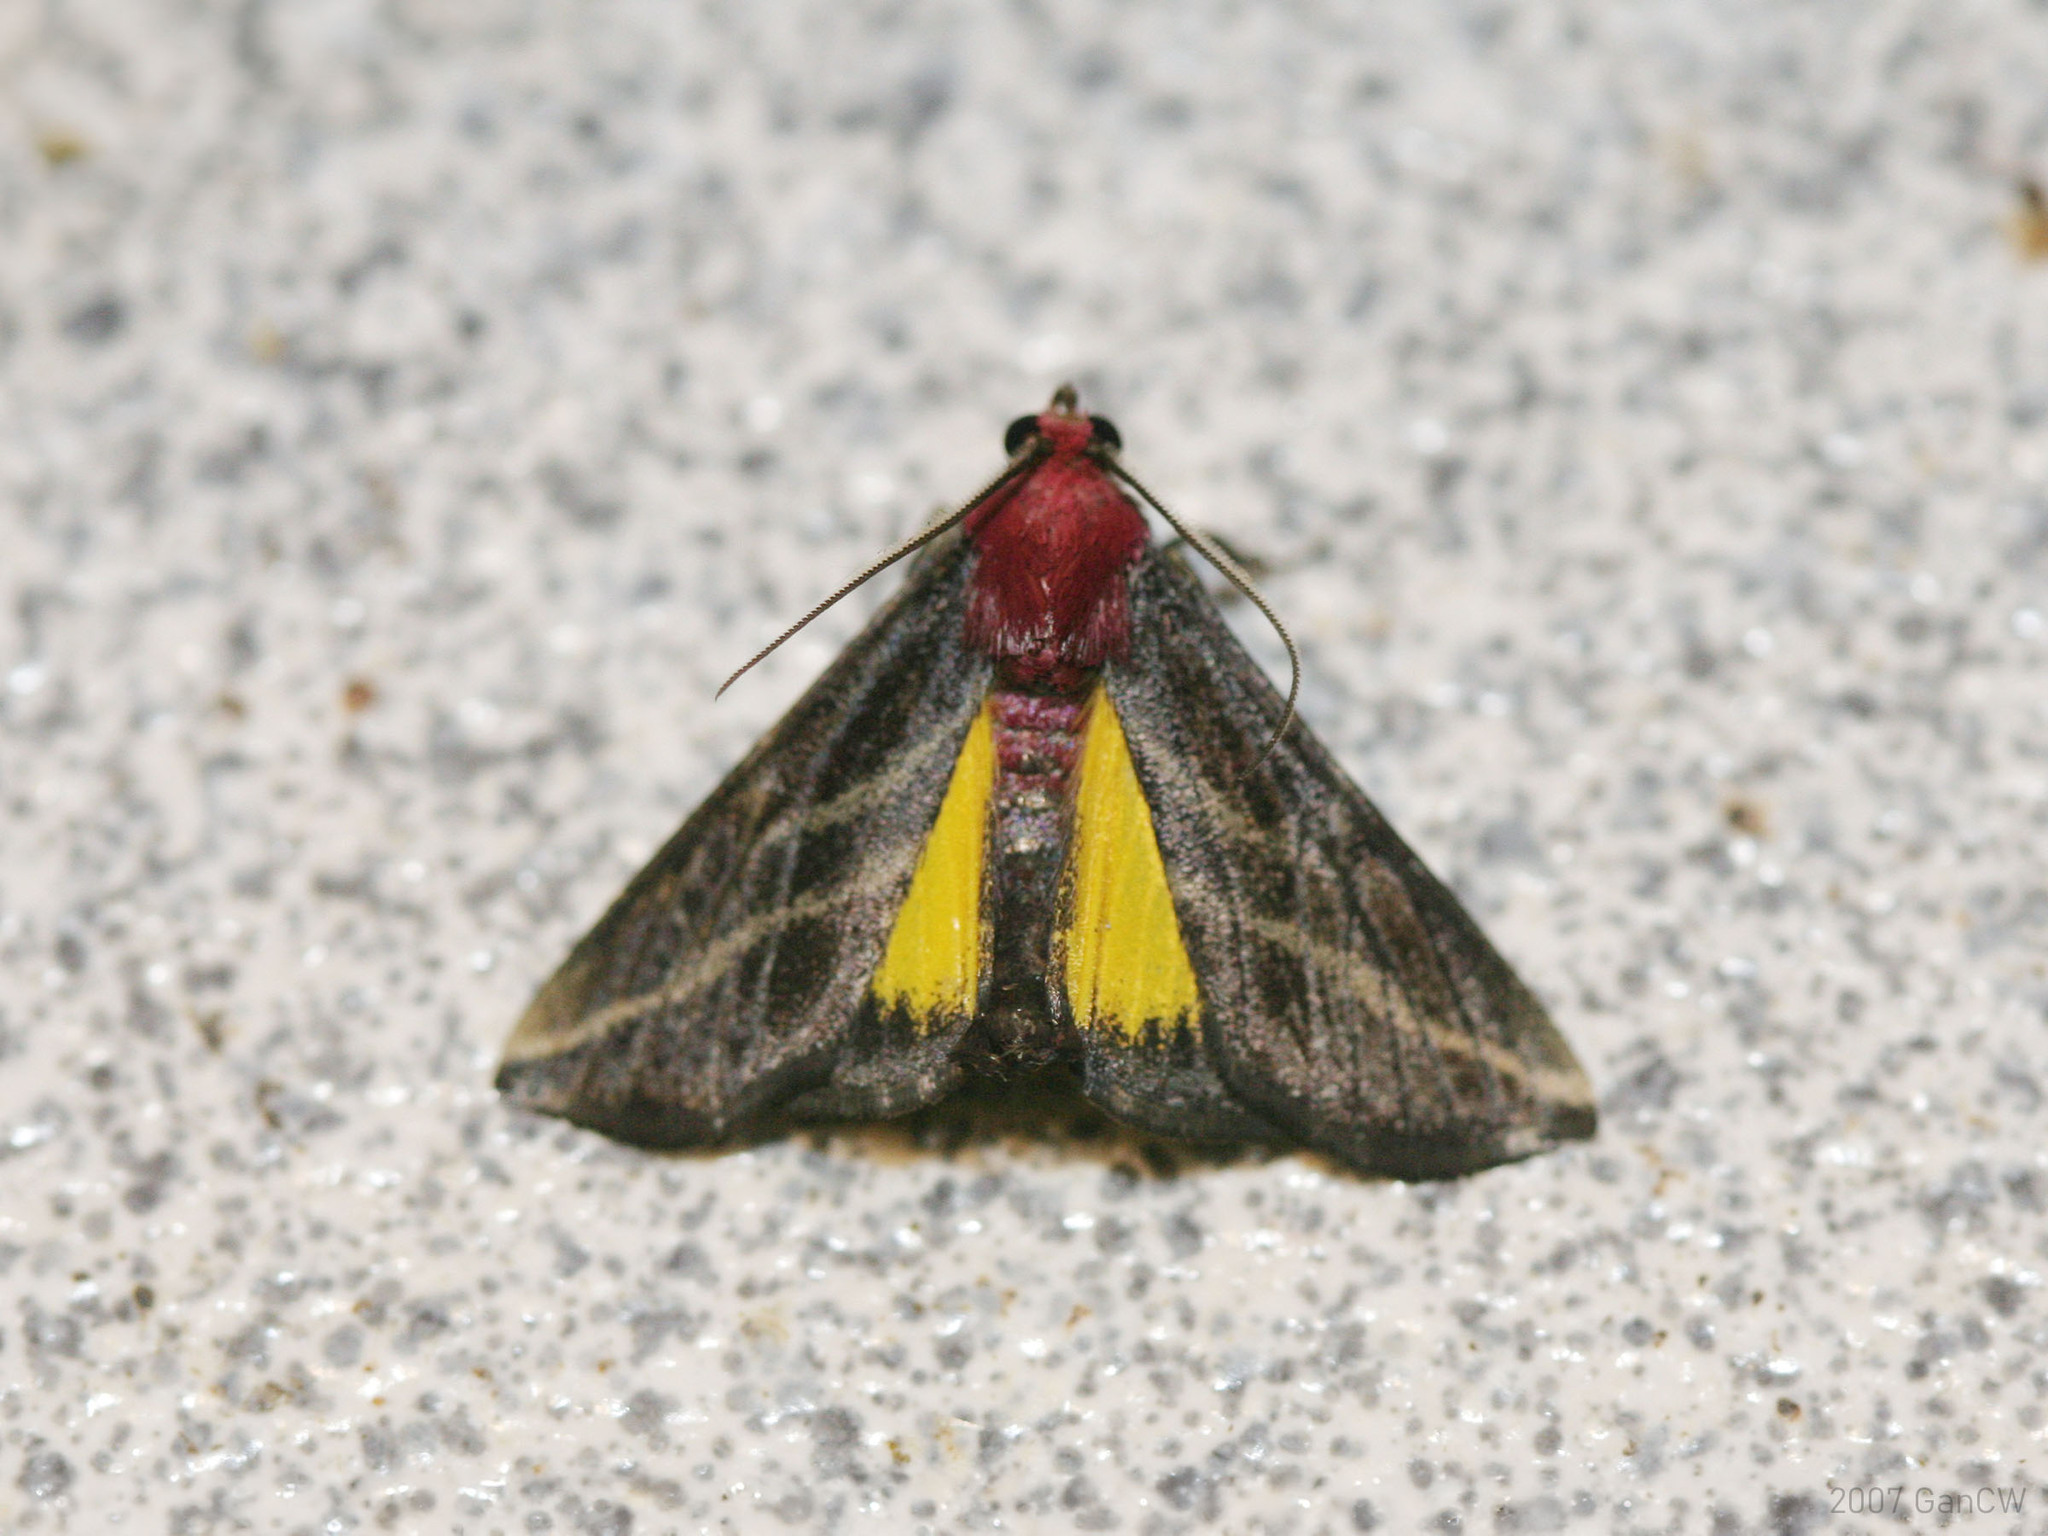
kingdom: Animalia
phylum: Arthropoda
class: Insecta
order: Lepidoptera
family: Pyralidae
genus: Toccolosida
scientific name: Toccolosida rubriceps
